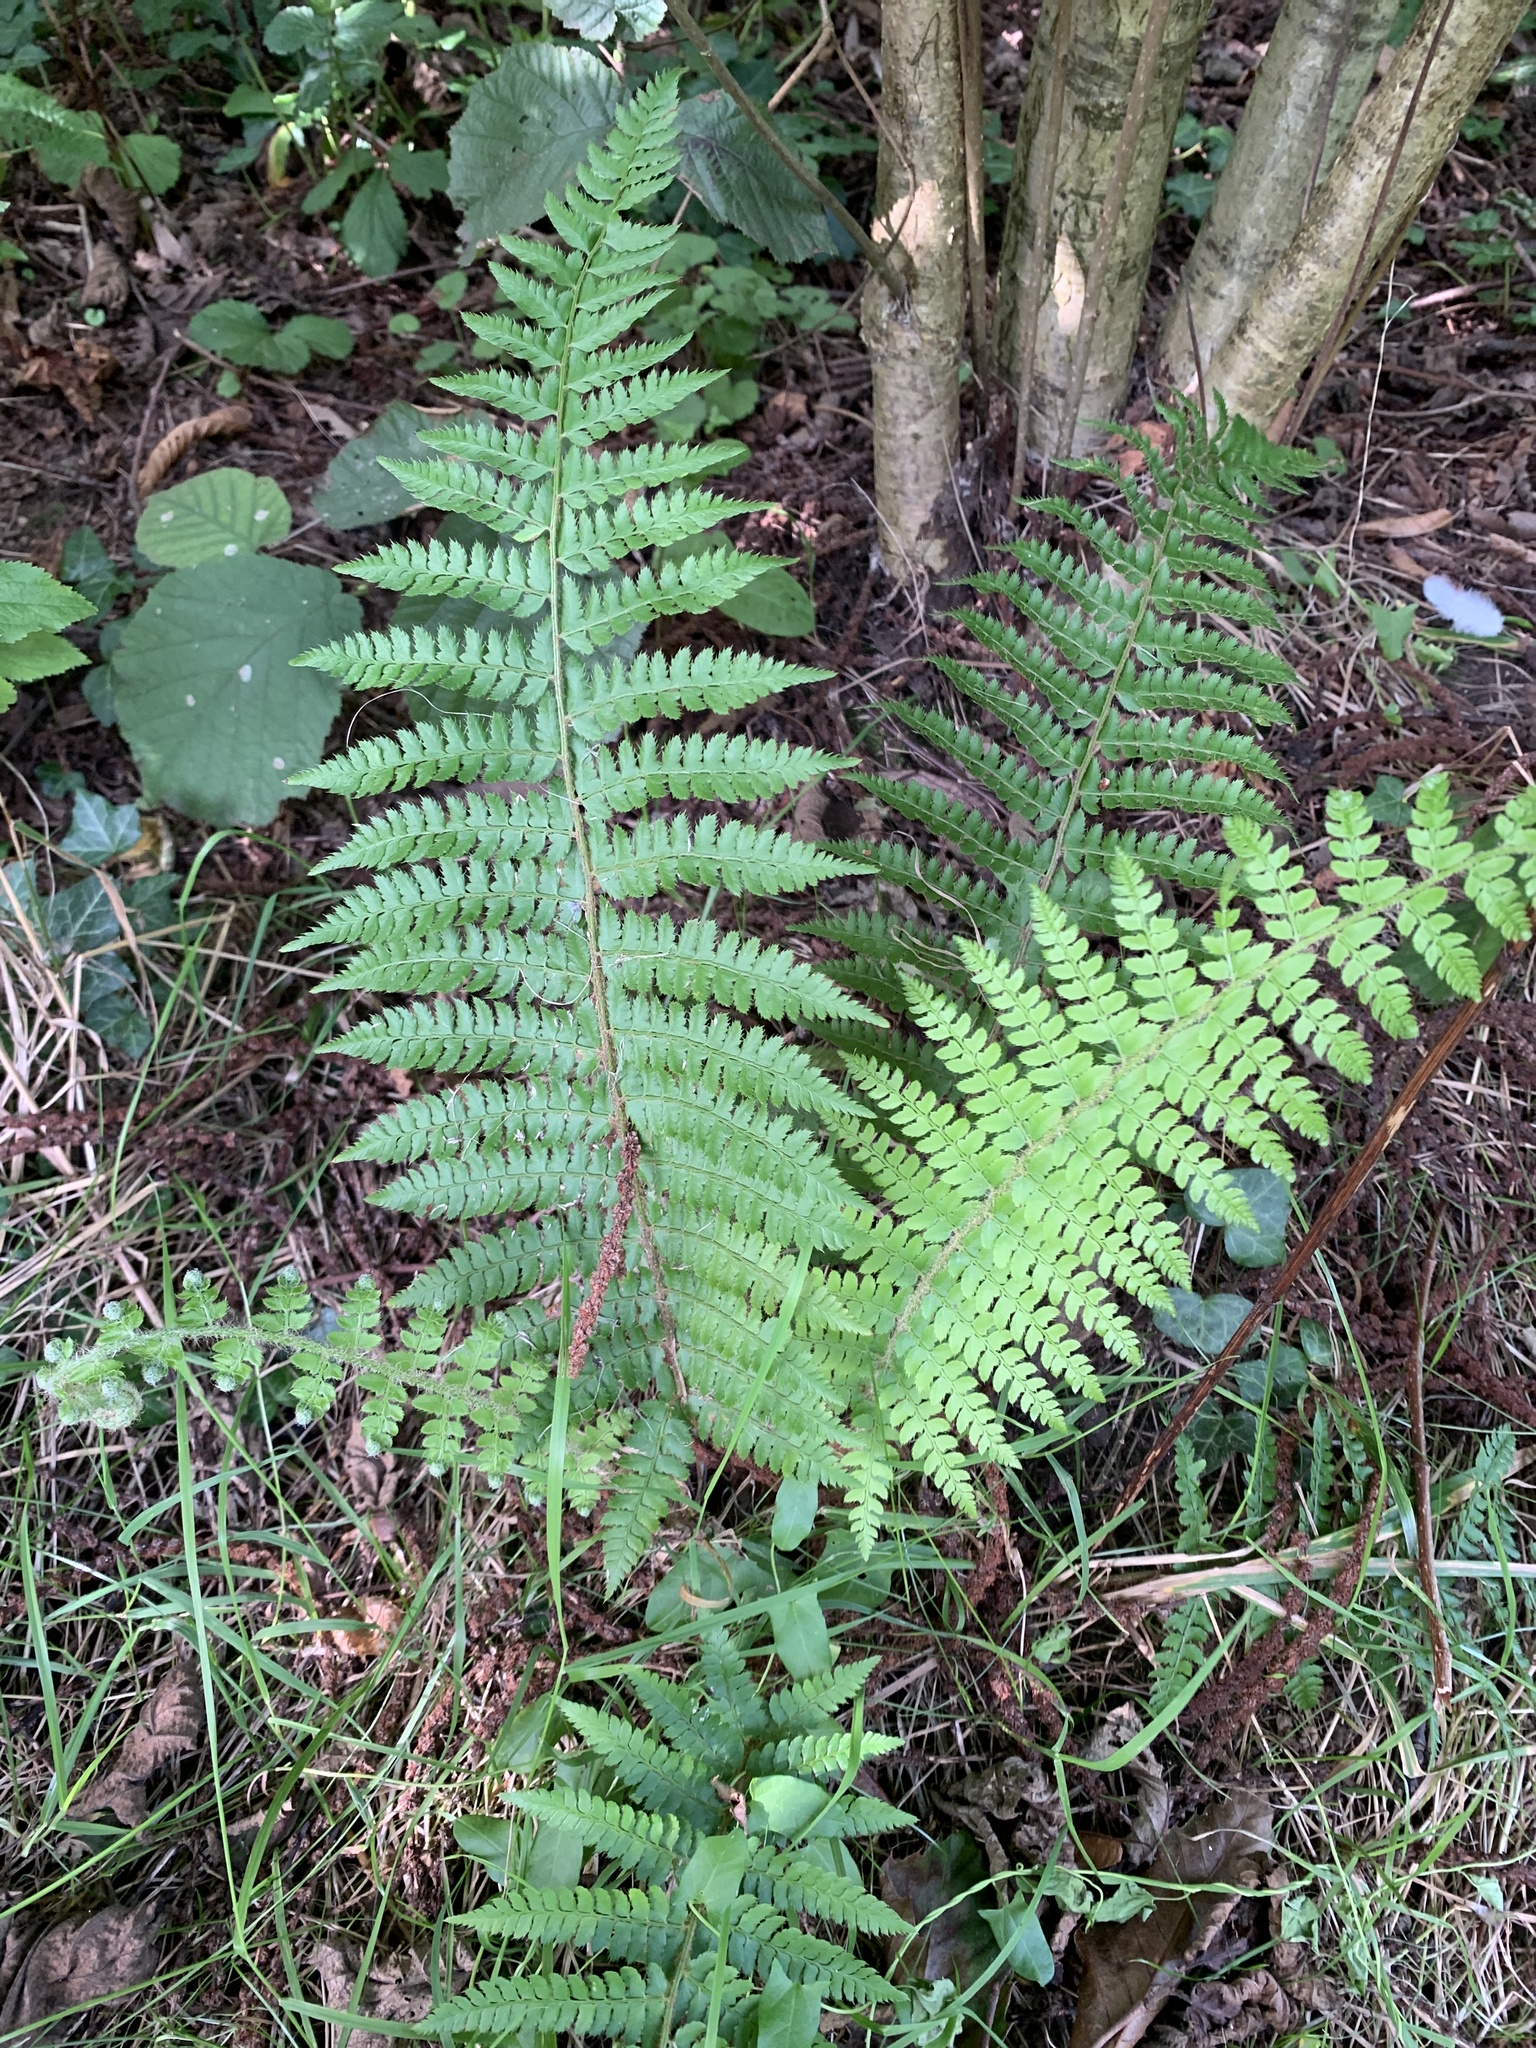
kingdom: Plantae
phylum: Tracheophyta
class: Polypodiopsida
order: Polypodiales
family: Dryopteridaceae
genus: Polystichum
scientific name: Polystichum setiferum
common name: Soft shield-fern
